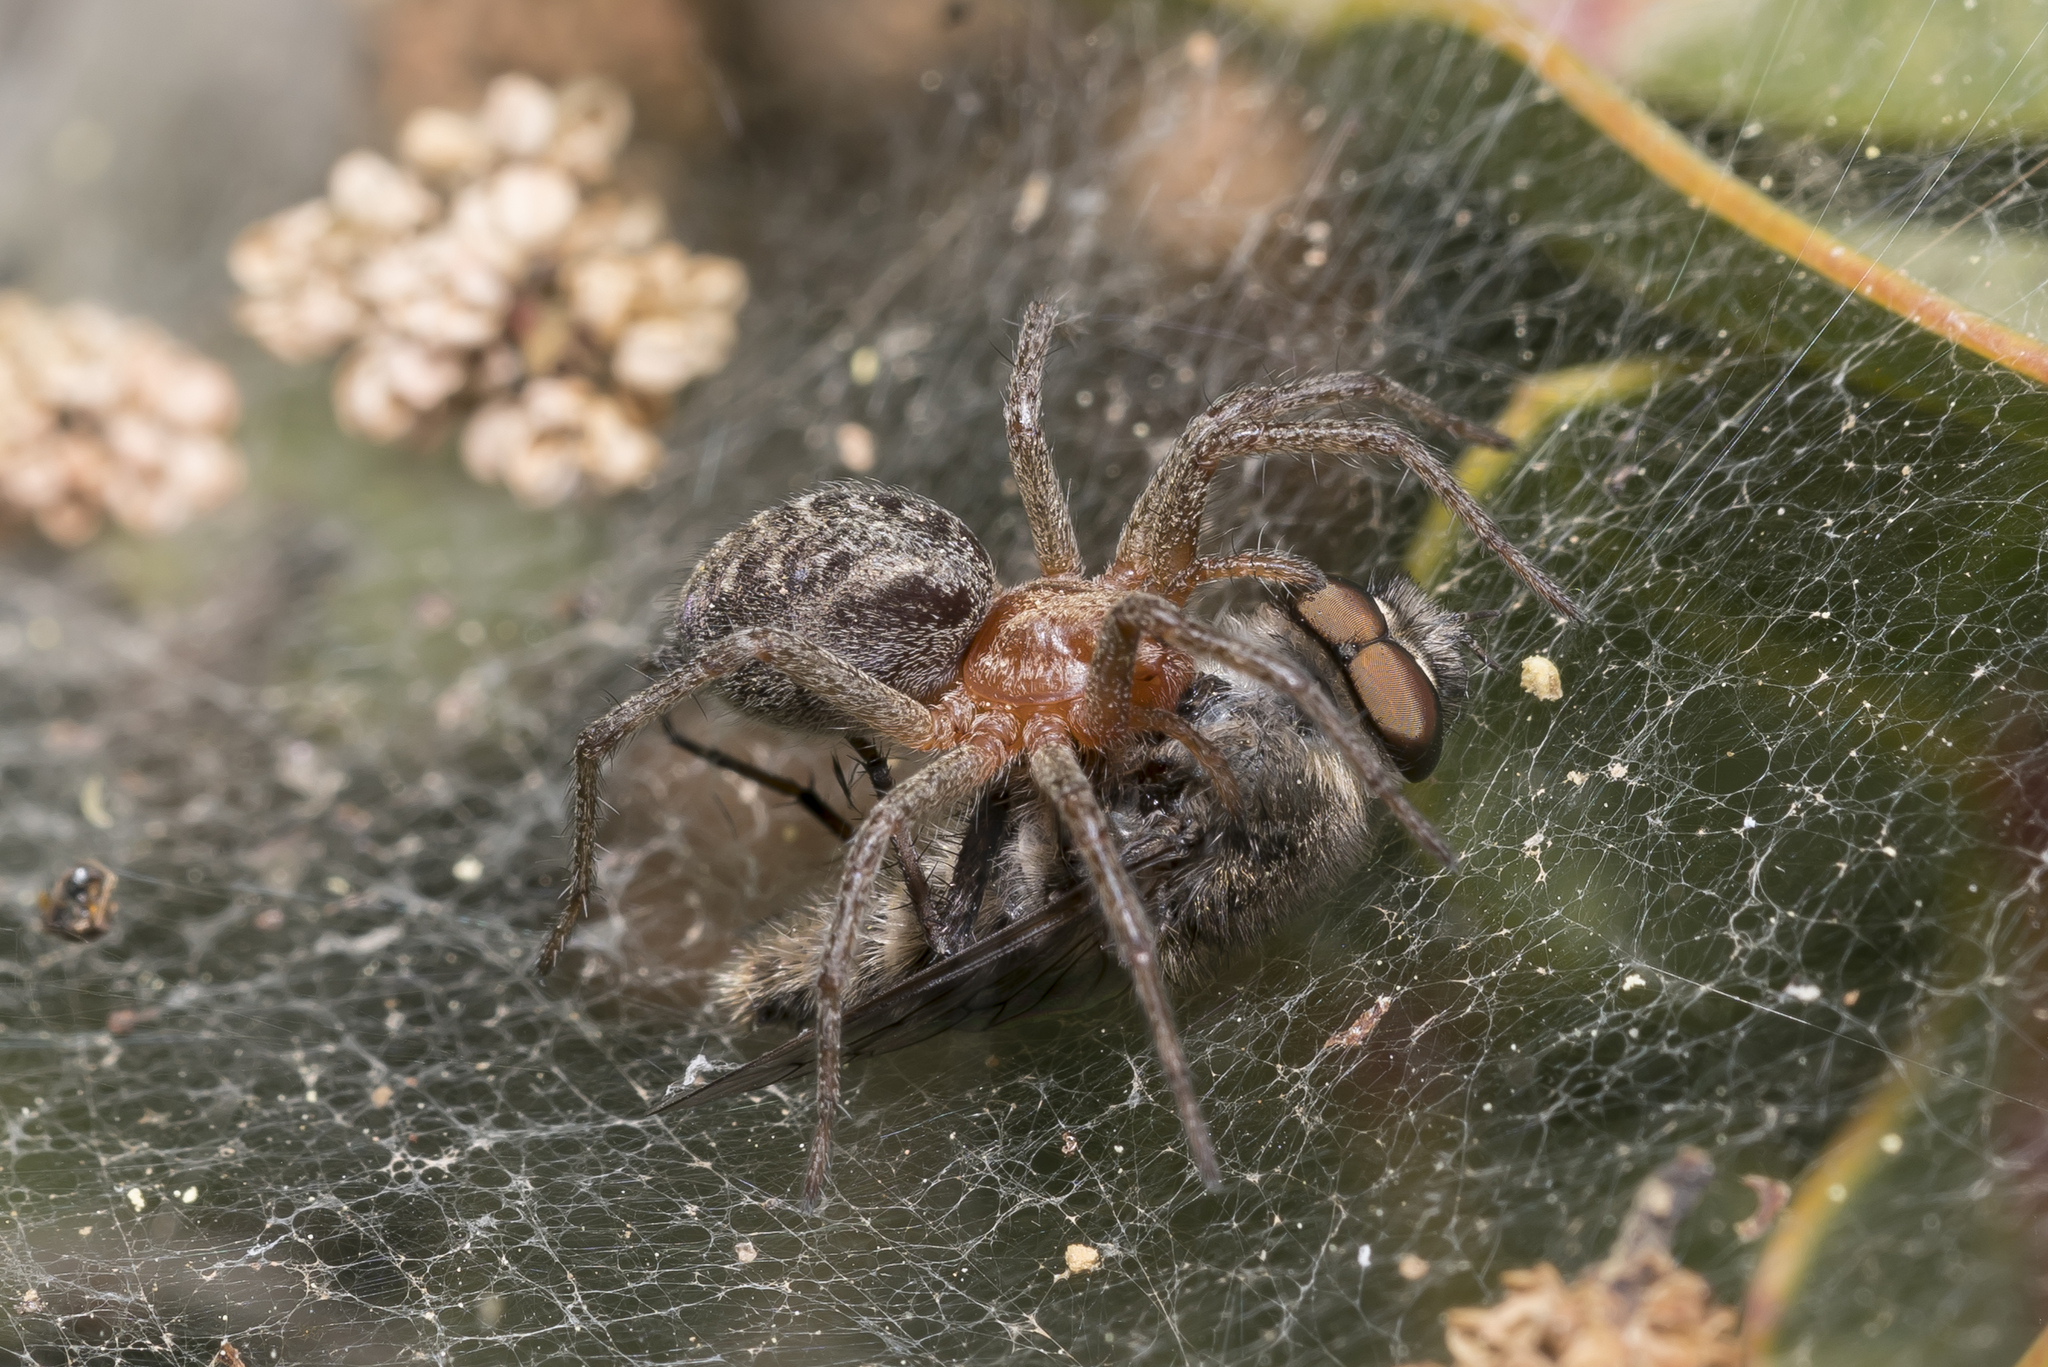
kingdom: Animalia
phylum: Arthropoda
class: Arachnida
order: Araneae
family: Agelenidae
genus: Agelena
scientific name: Agelena labyrinthica
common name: Labyrinth spider
